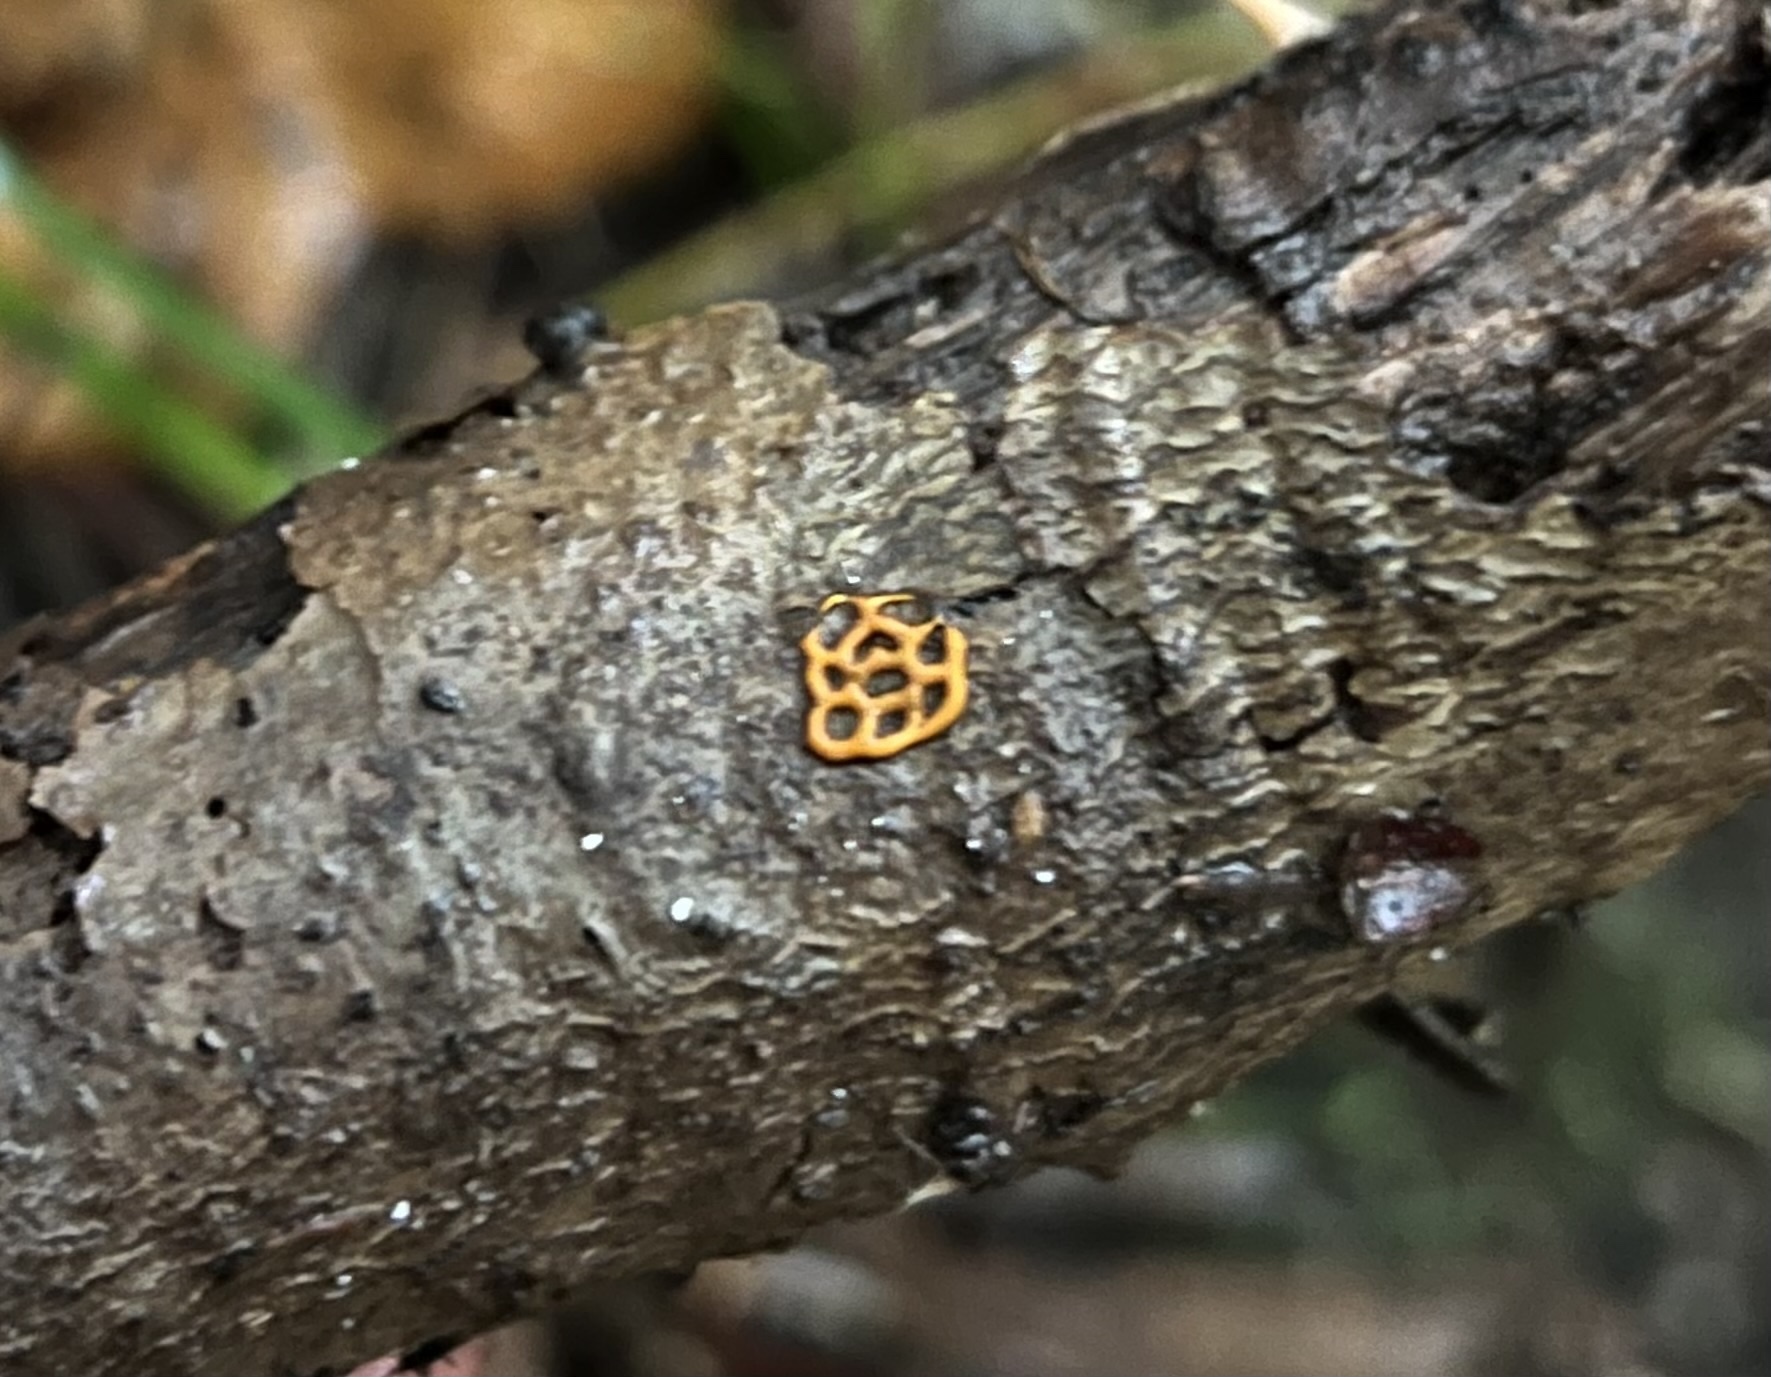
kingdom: Protozoa
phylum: Mycetozoa
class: Myxomycetes
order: Trichiales
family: Arcyriaceae
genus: Hemitrichia
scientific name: Hemitrichia serpula
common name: Pretzel slime mold
